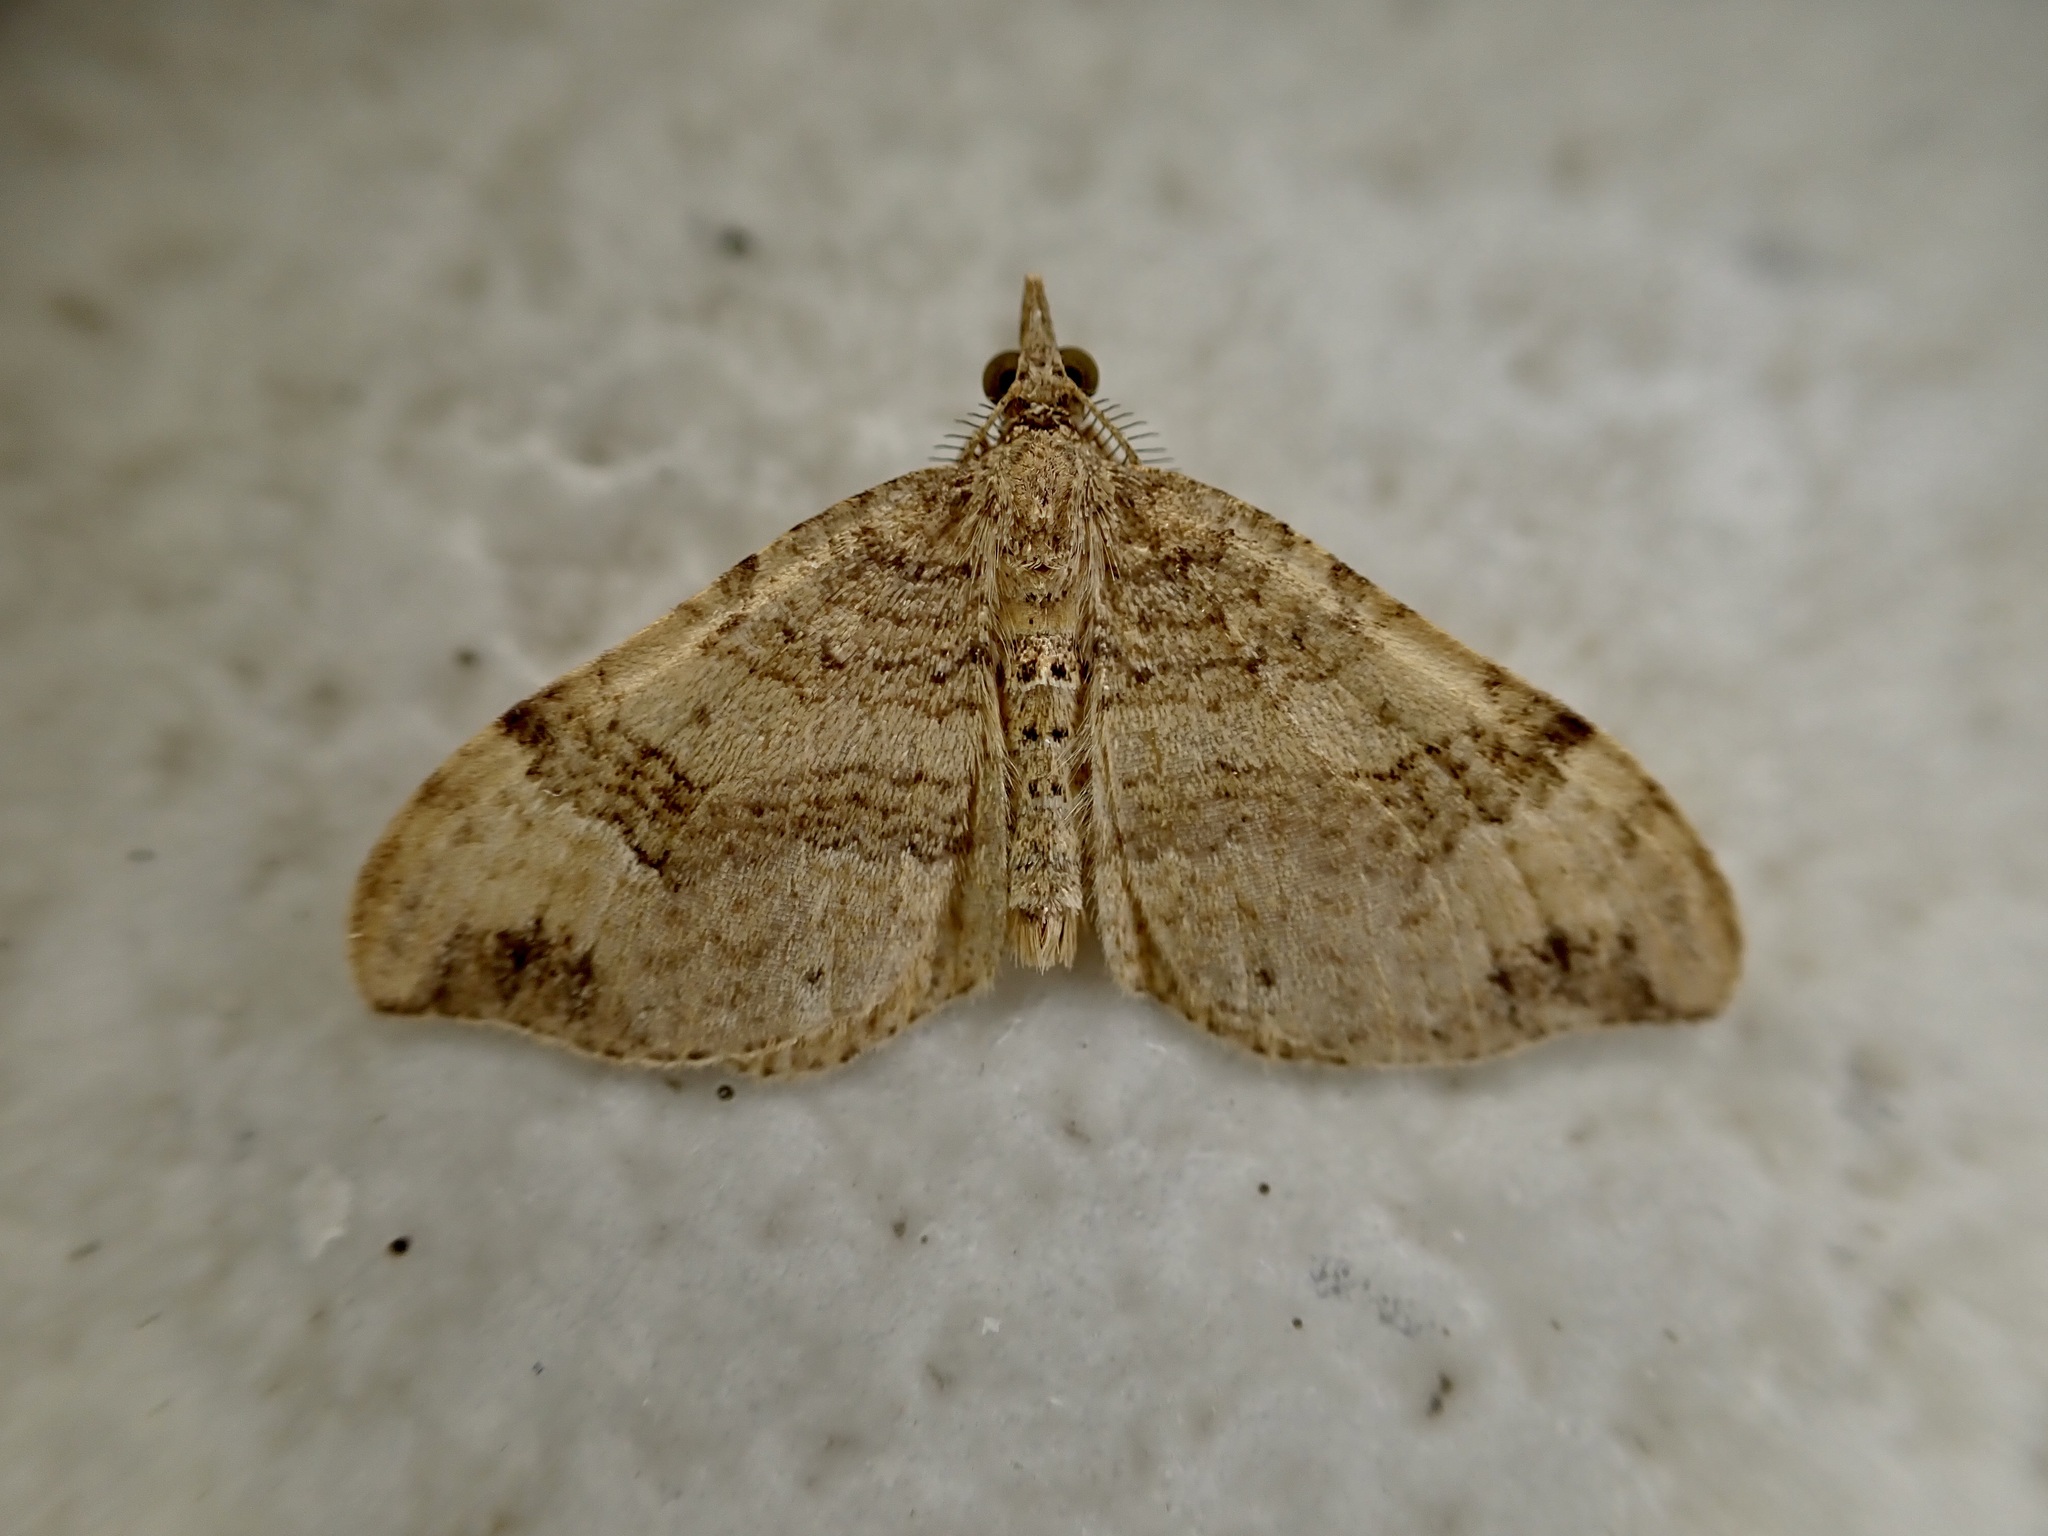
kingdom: Animalia
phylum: Arthropoda
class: Insecta
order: Lepidoptera
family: Geometridae
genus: Homodotis
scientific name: Homodotis megaspilata
